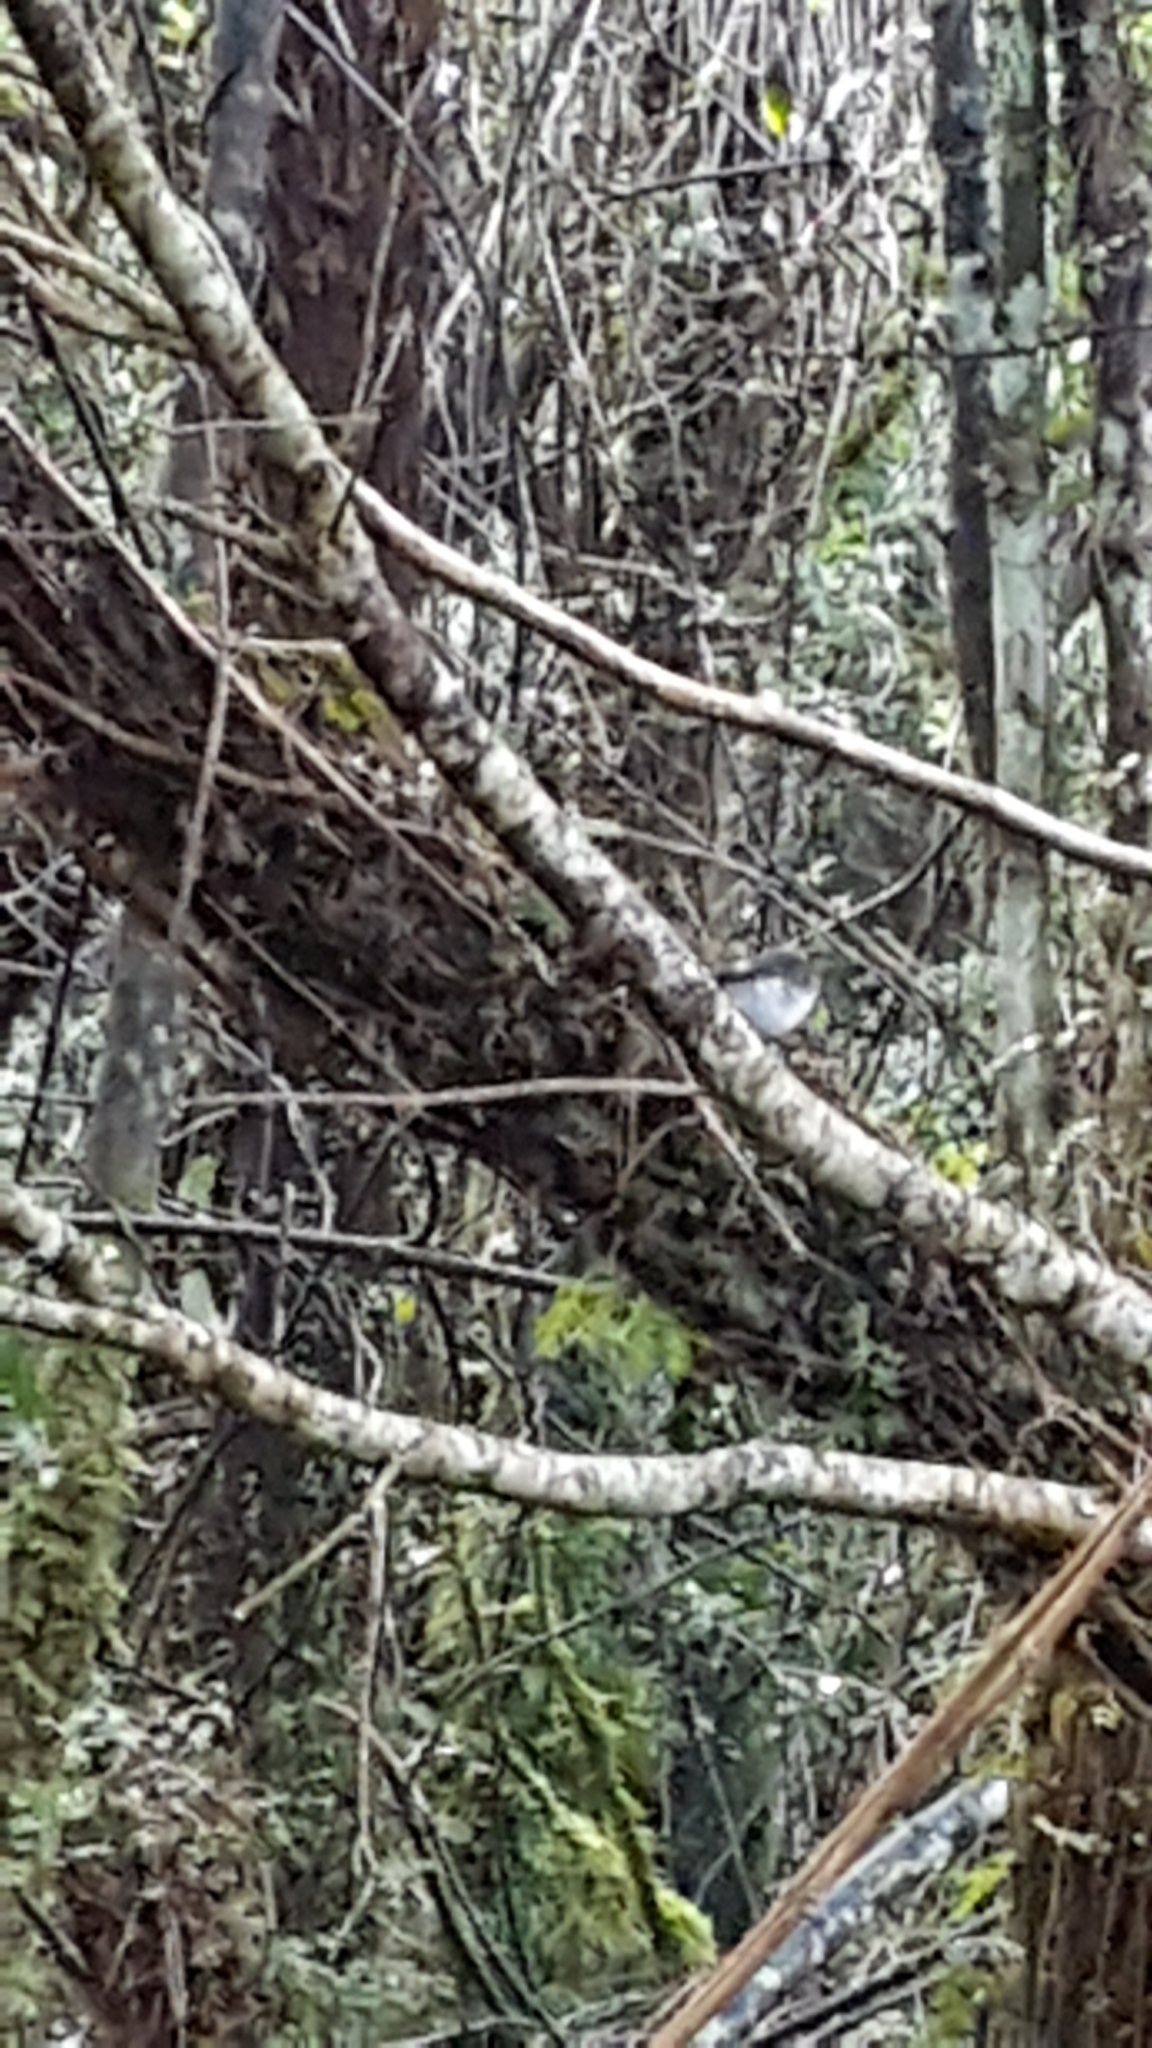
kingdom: Animalia
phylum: Chordata
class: Aves
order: Passeriformes
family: Petroicidae
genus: Petroica
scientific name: Petroica macrocephala
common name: Tomtit
